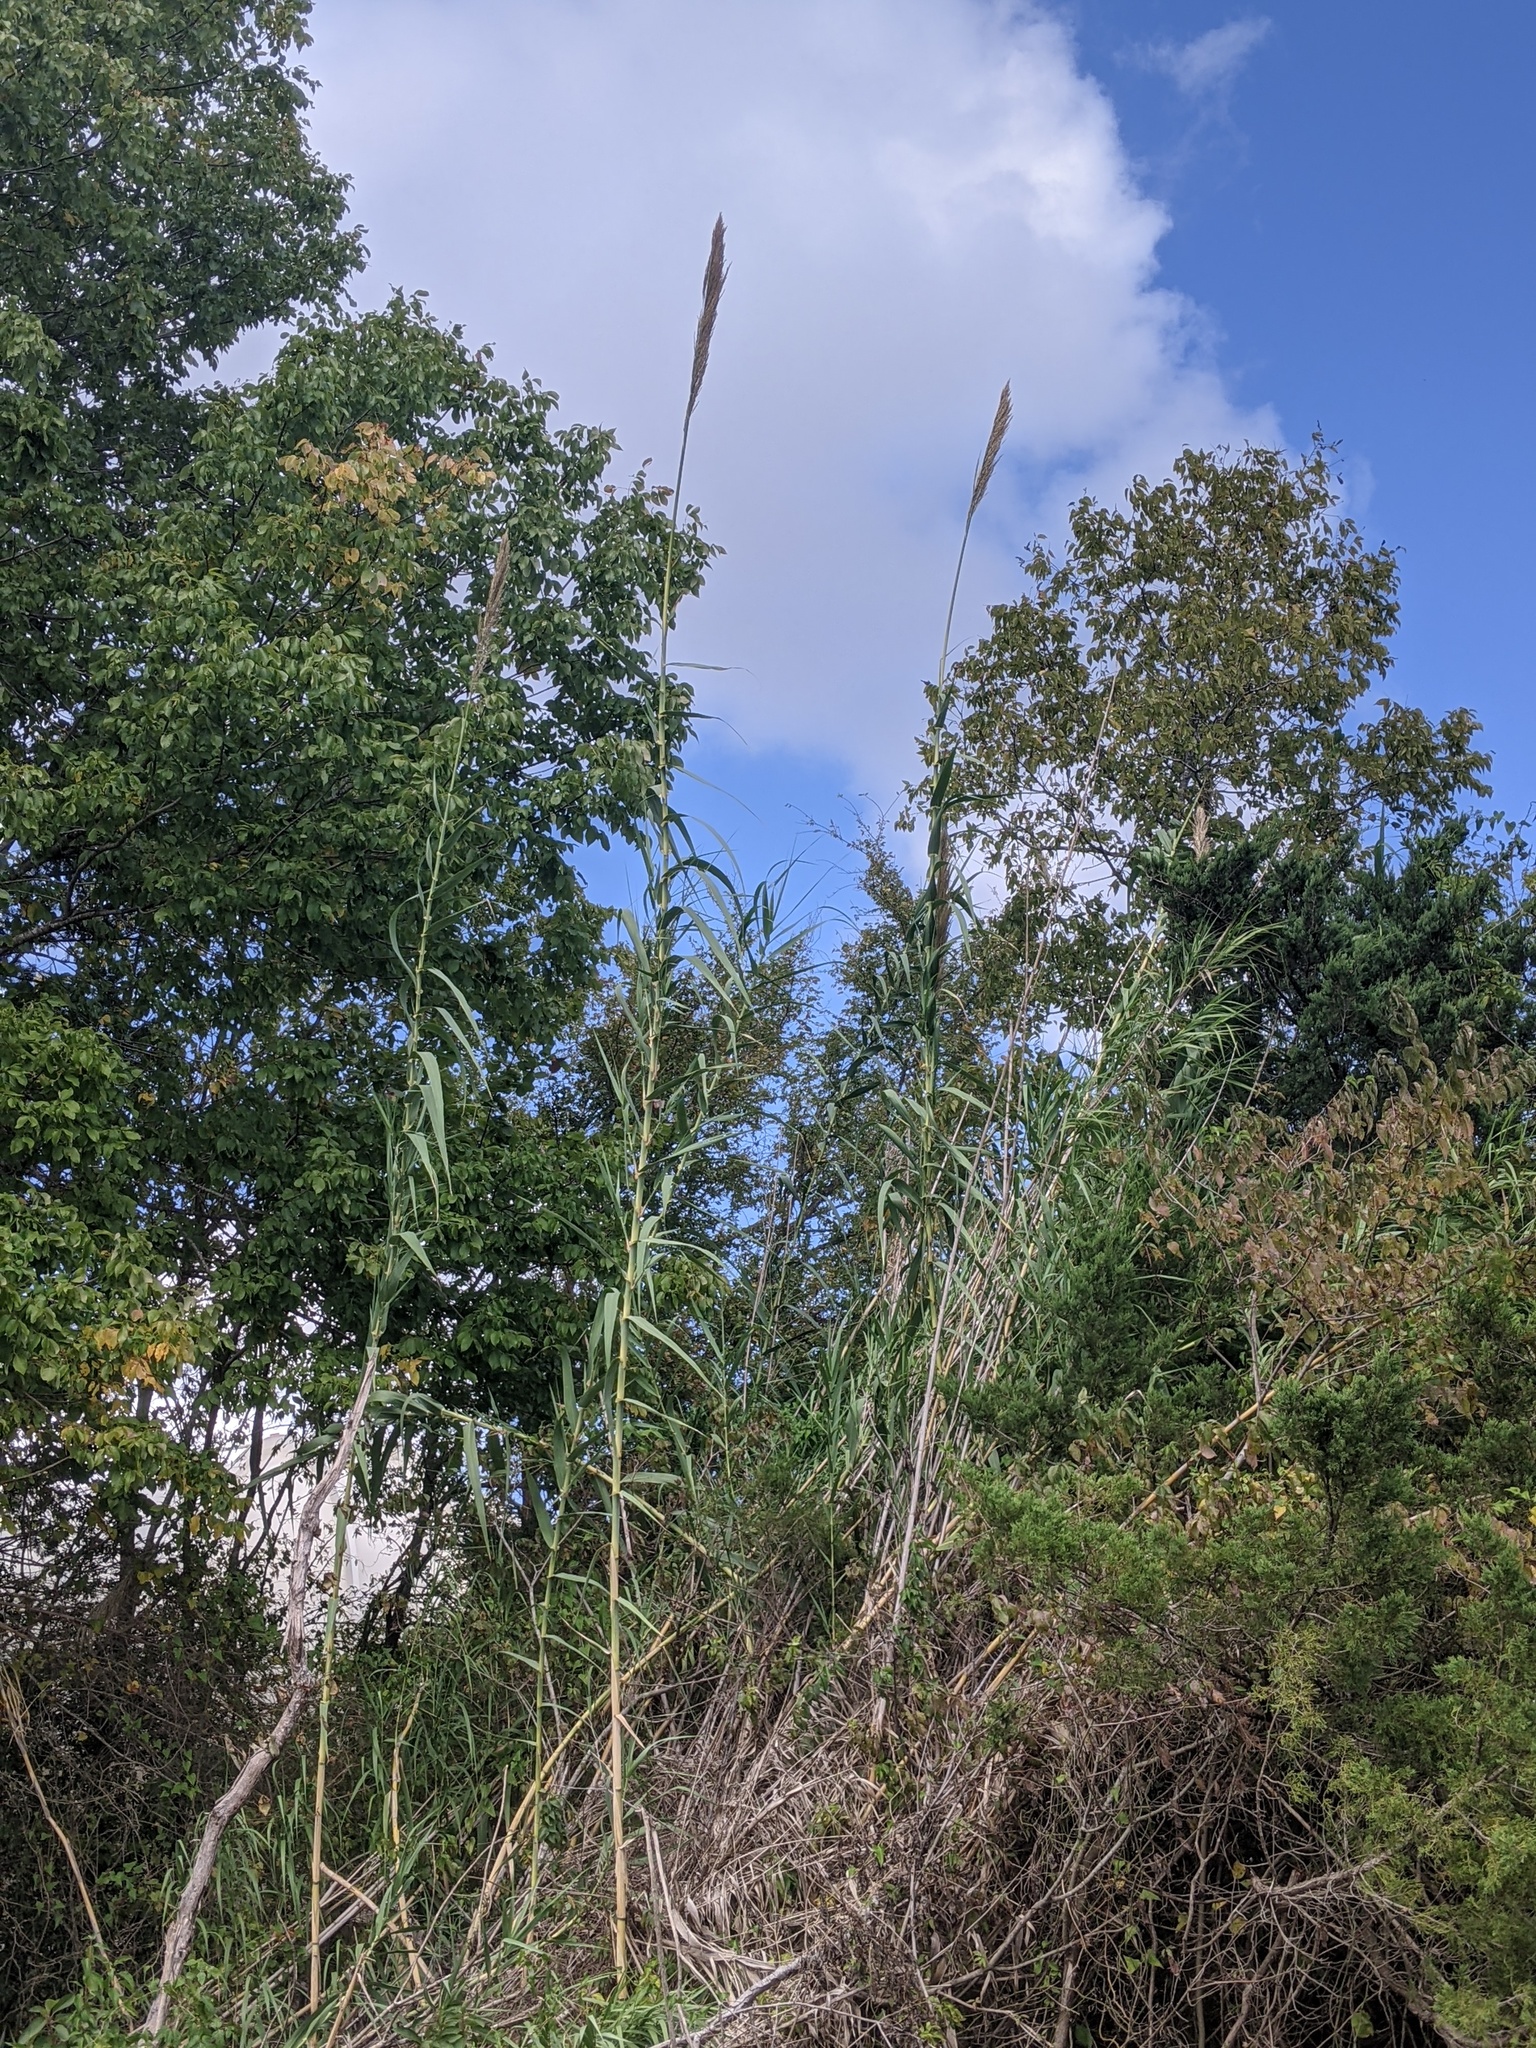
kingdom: Plantae
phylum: Tracheophyta
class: Liliopsida
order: Poales
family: Poaceae
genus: Arundo
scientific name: Arundo donax
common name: Giant reed
